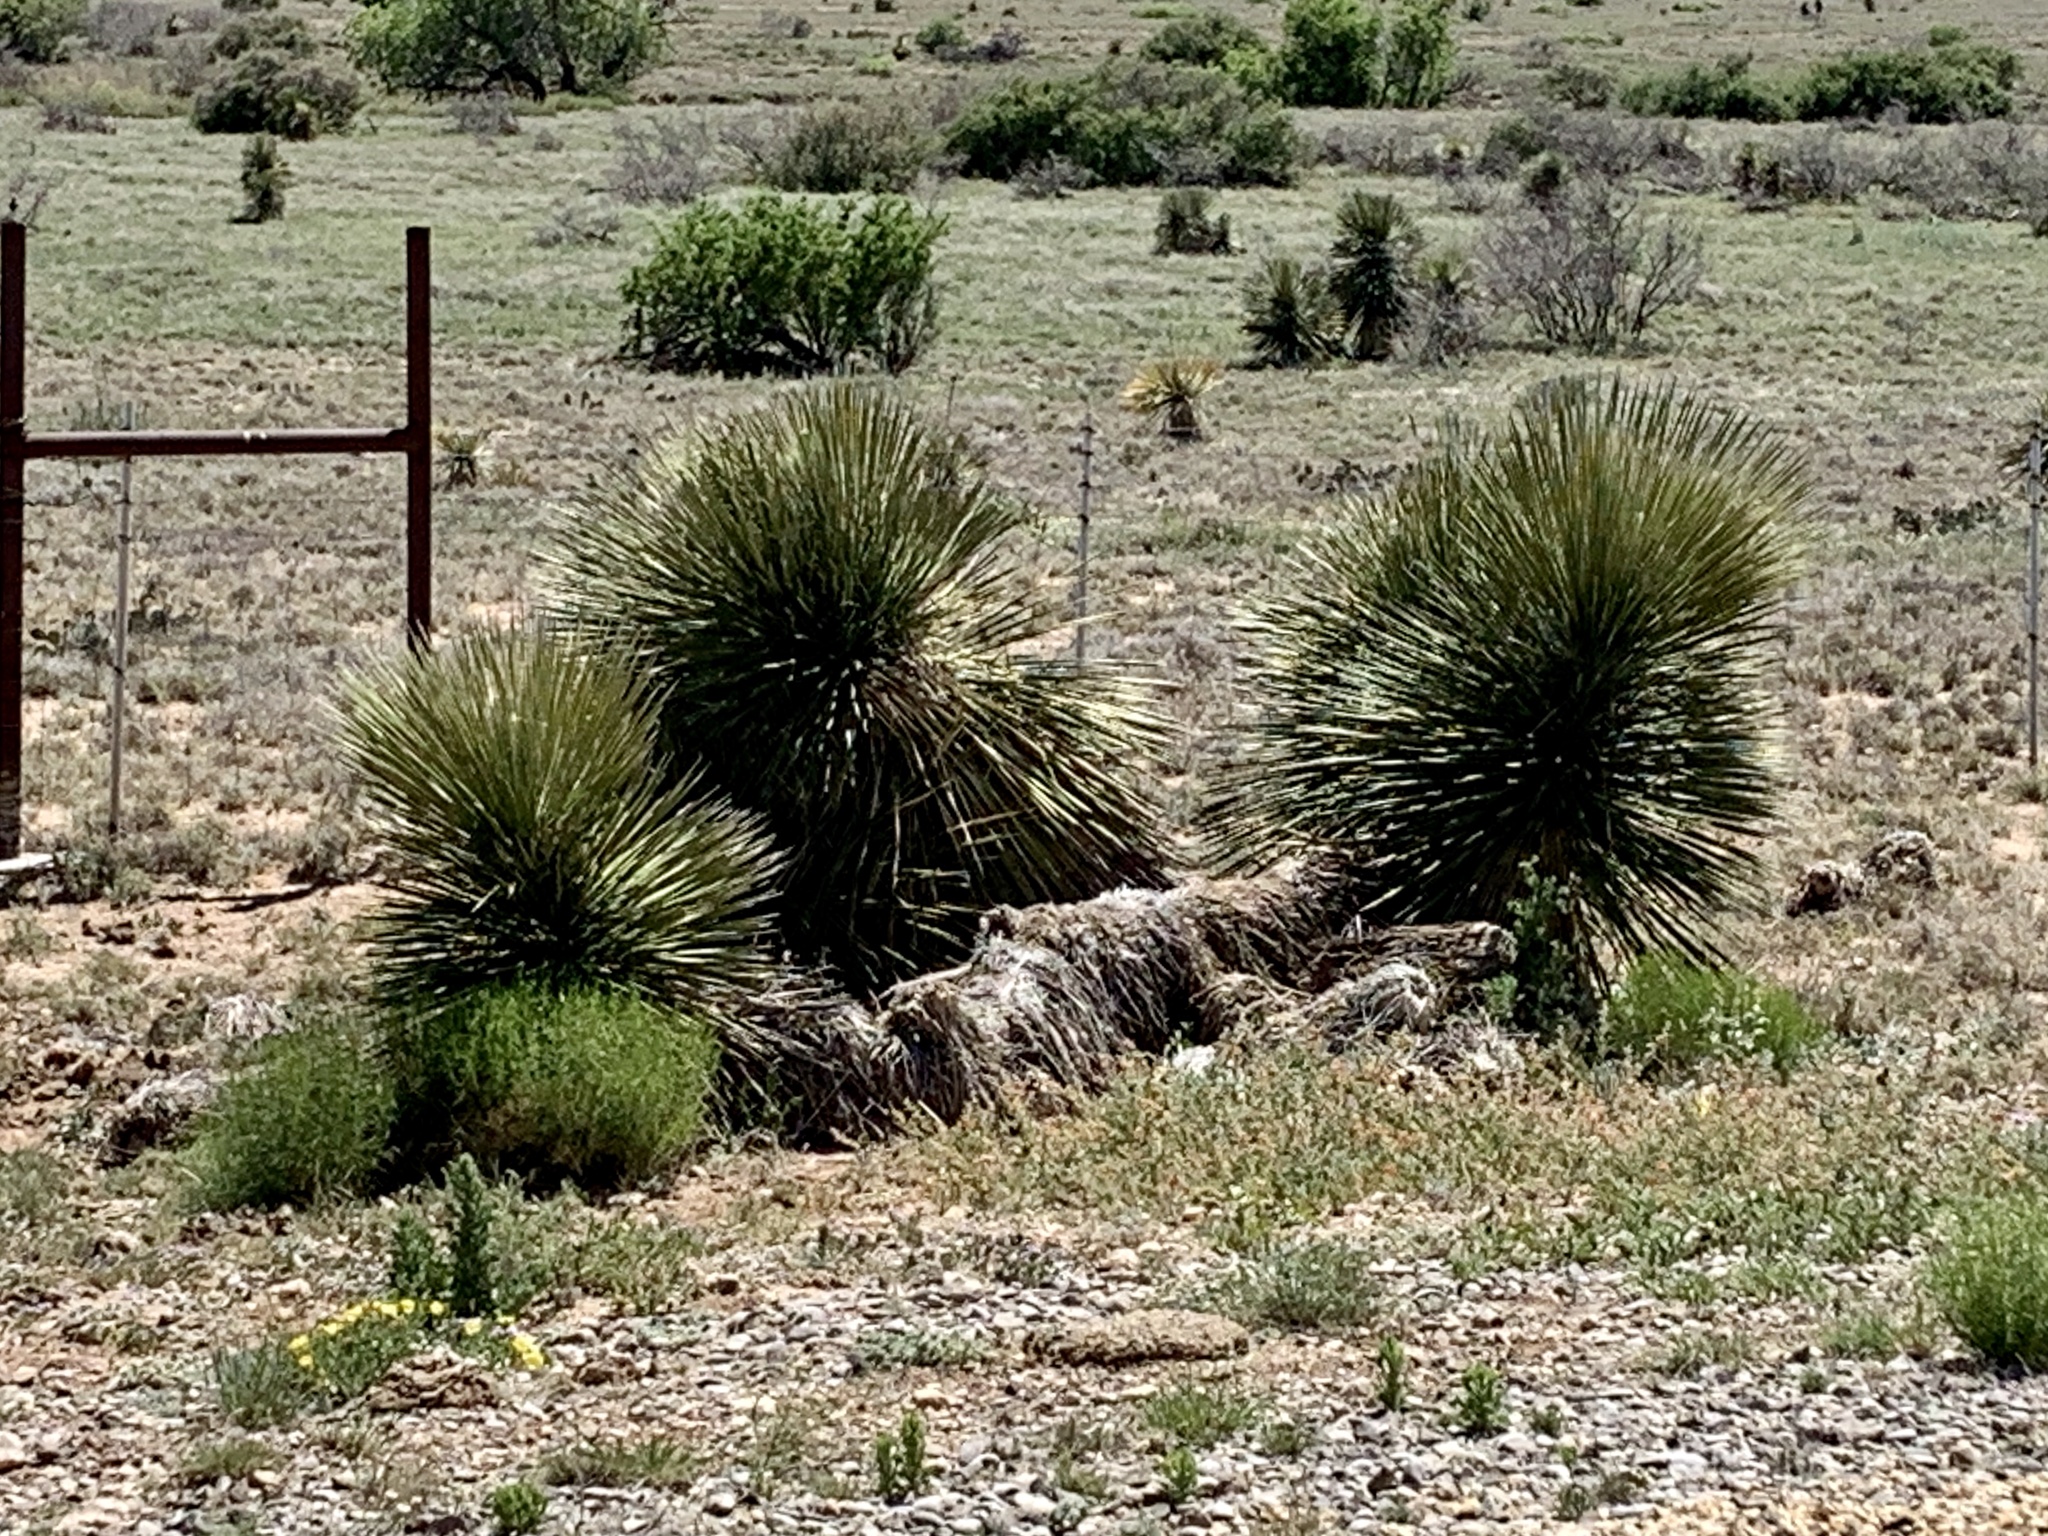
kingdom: Plantae
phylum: Tracheophyta
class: Liliopsida
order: Asparagales
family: Asparagaceae
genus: Yucca
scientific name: Yucca elata
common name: Palmella
